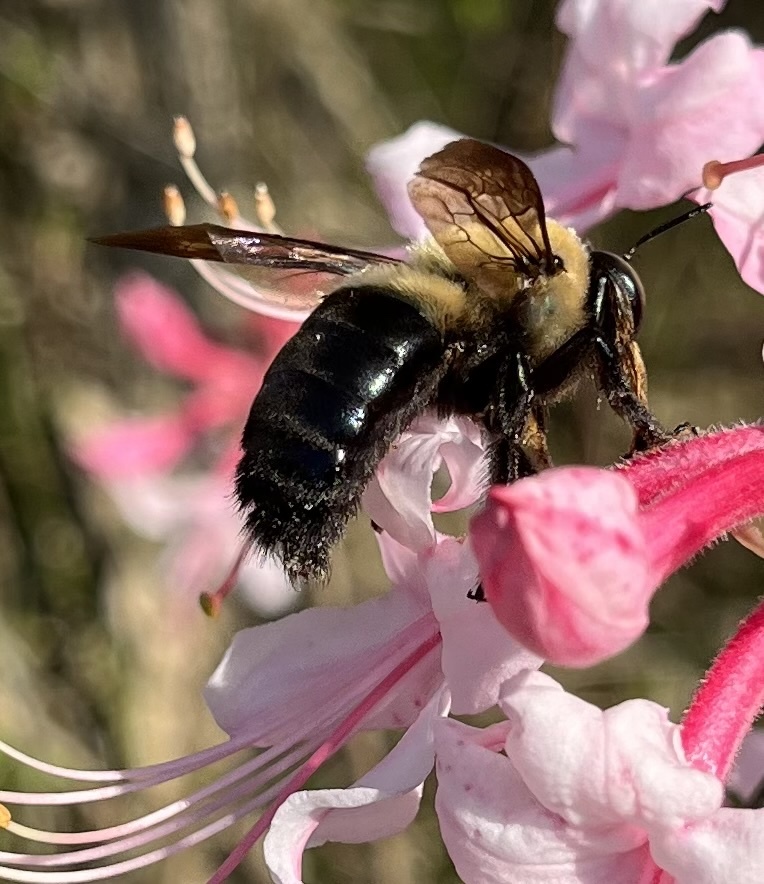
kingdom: Animalia
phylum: Arthropoda
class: Insecta
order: Hymenoptera
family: Apidae
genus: Xylocopa
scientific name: Xylocopa virginica
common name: Carpenter bee
